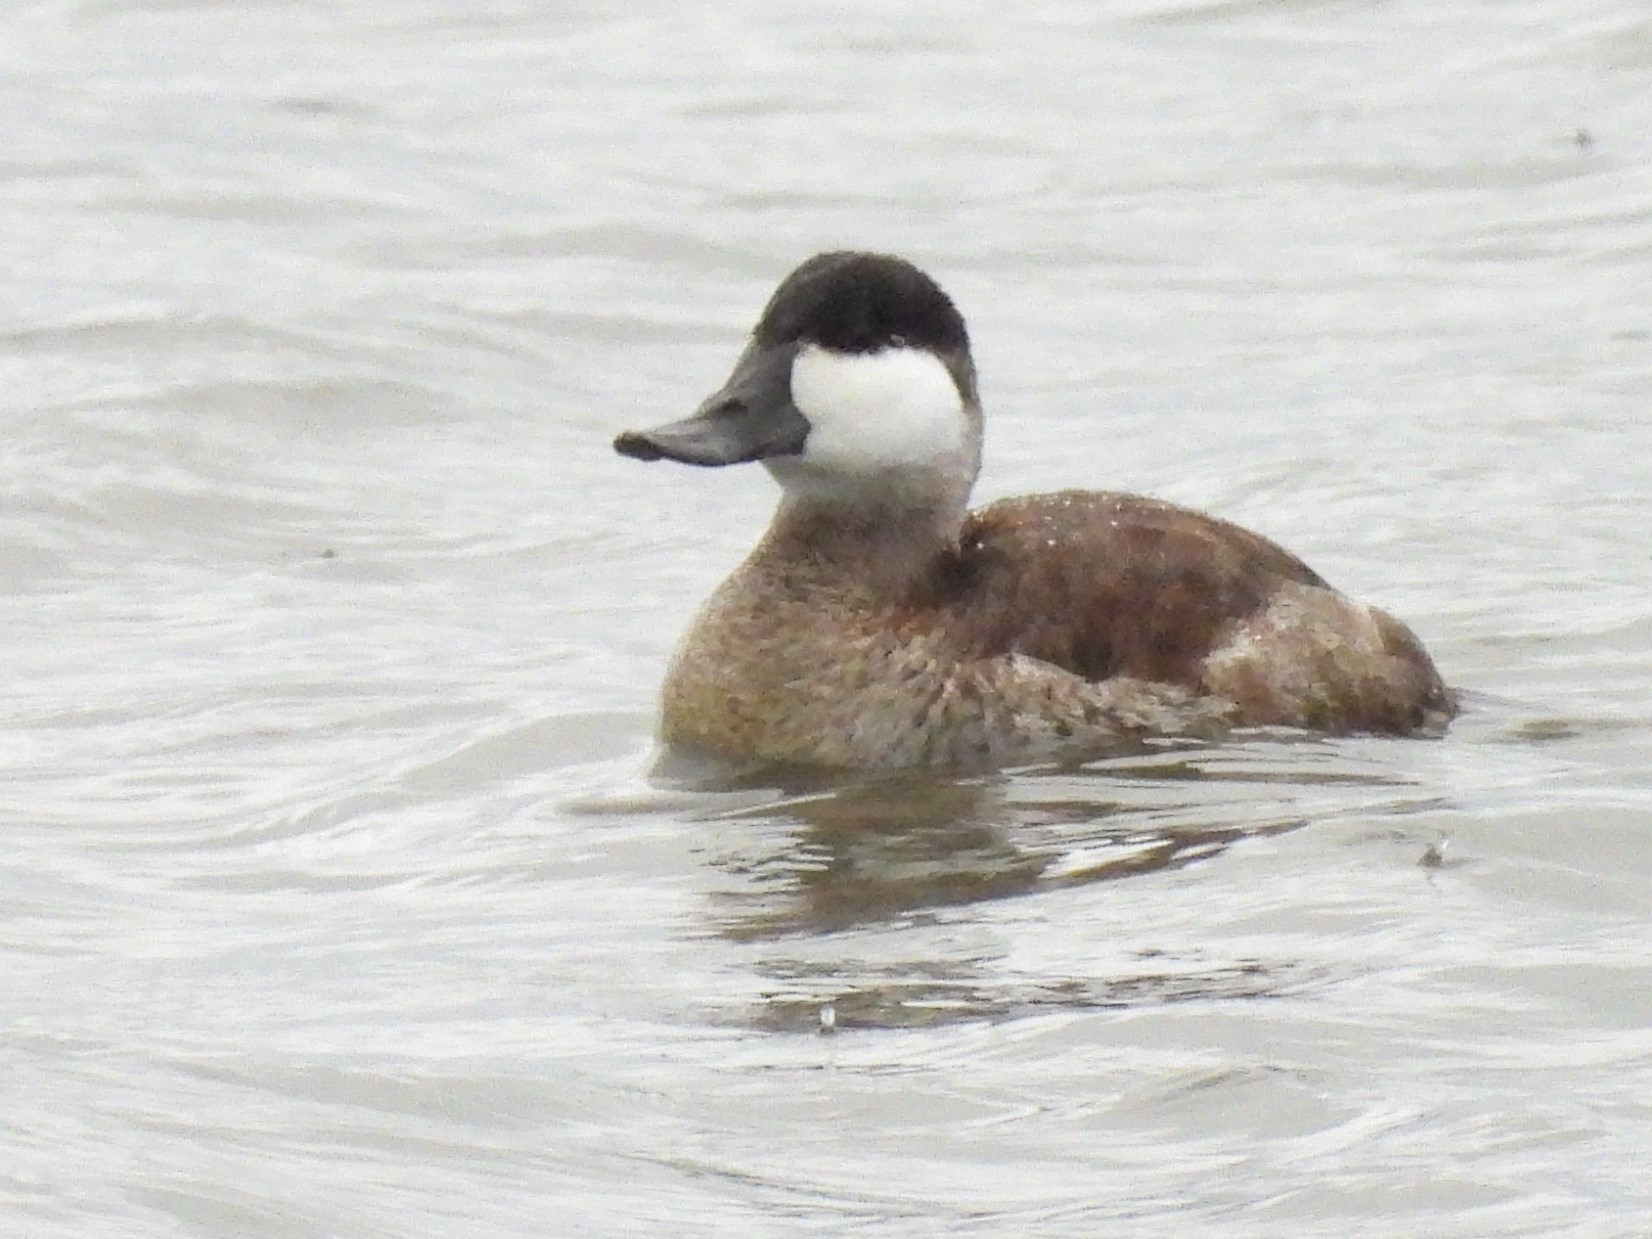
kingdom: Animalia
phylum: Chordata
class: Aves
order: Anseriformes
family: Anatidae
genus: Oxyura
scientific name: Oxyura jamaicensis
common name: Ruddy duck
